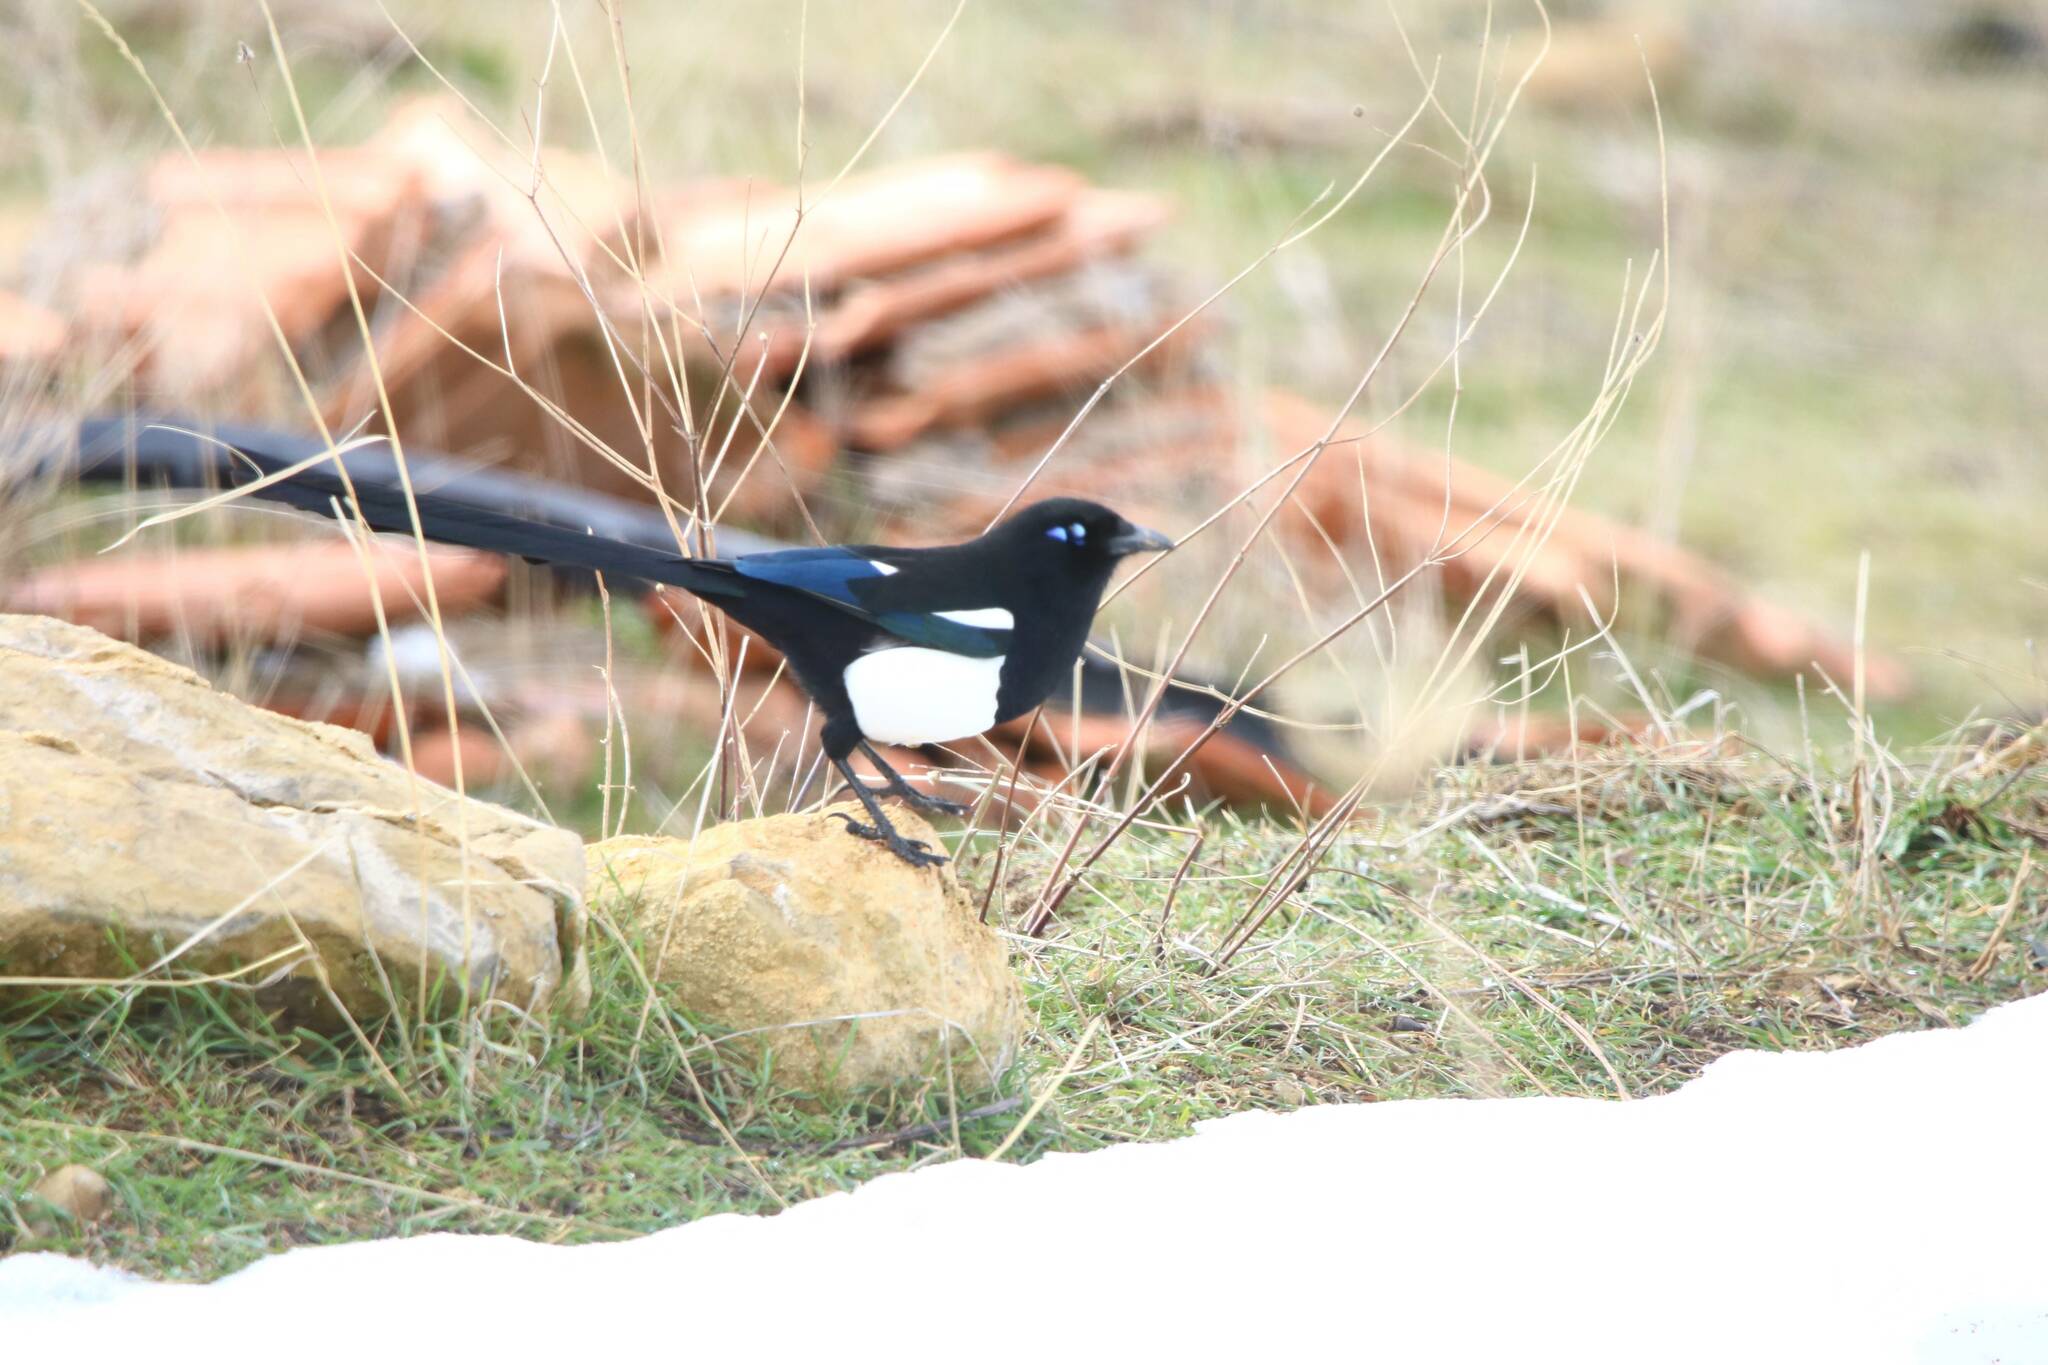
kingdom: Animalia
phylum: Chordata
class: Aves
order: Passeriformes
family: Corvidae
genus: Pica
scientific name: Pica mauritanica
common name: Maghreb magpie
